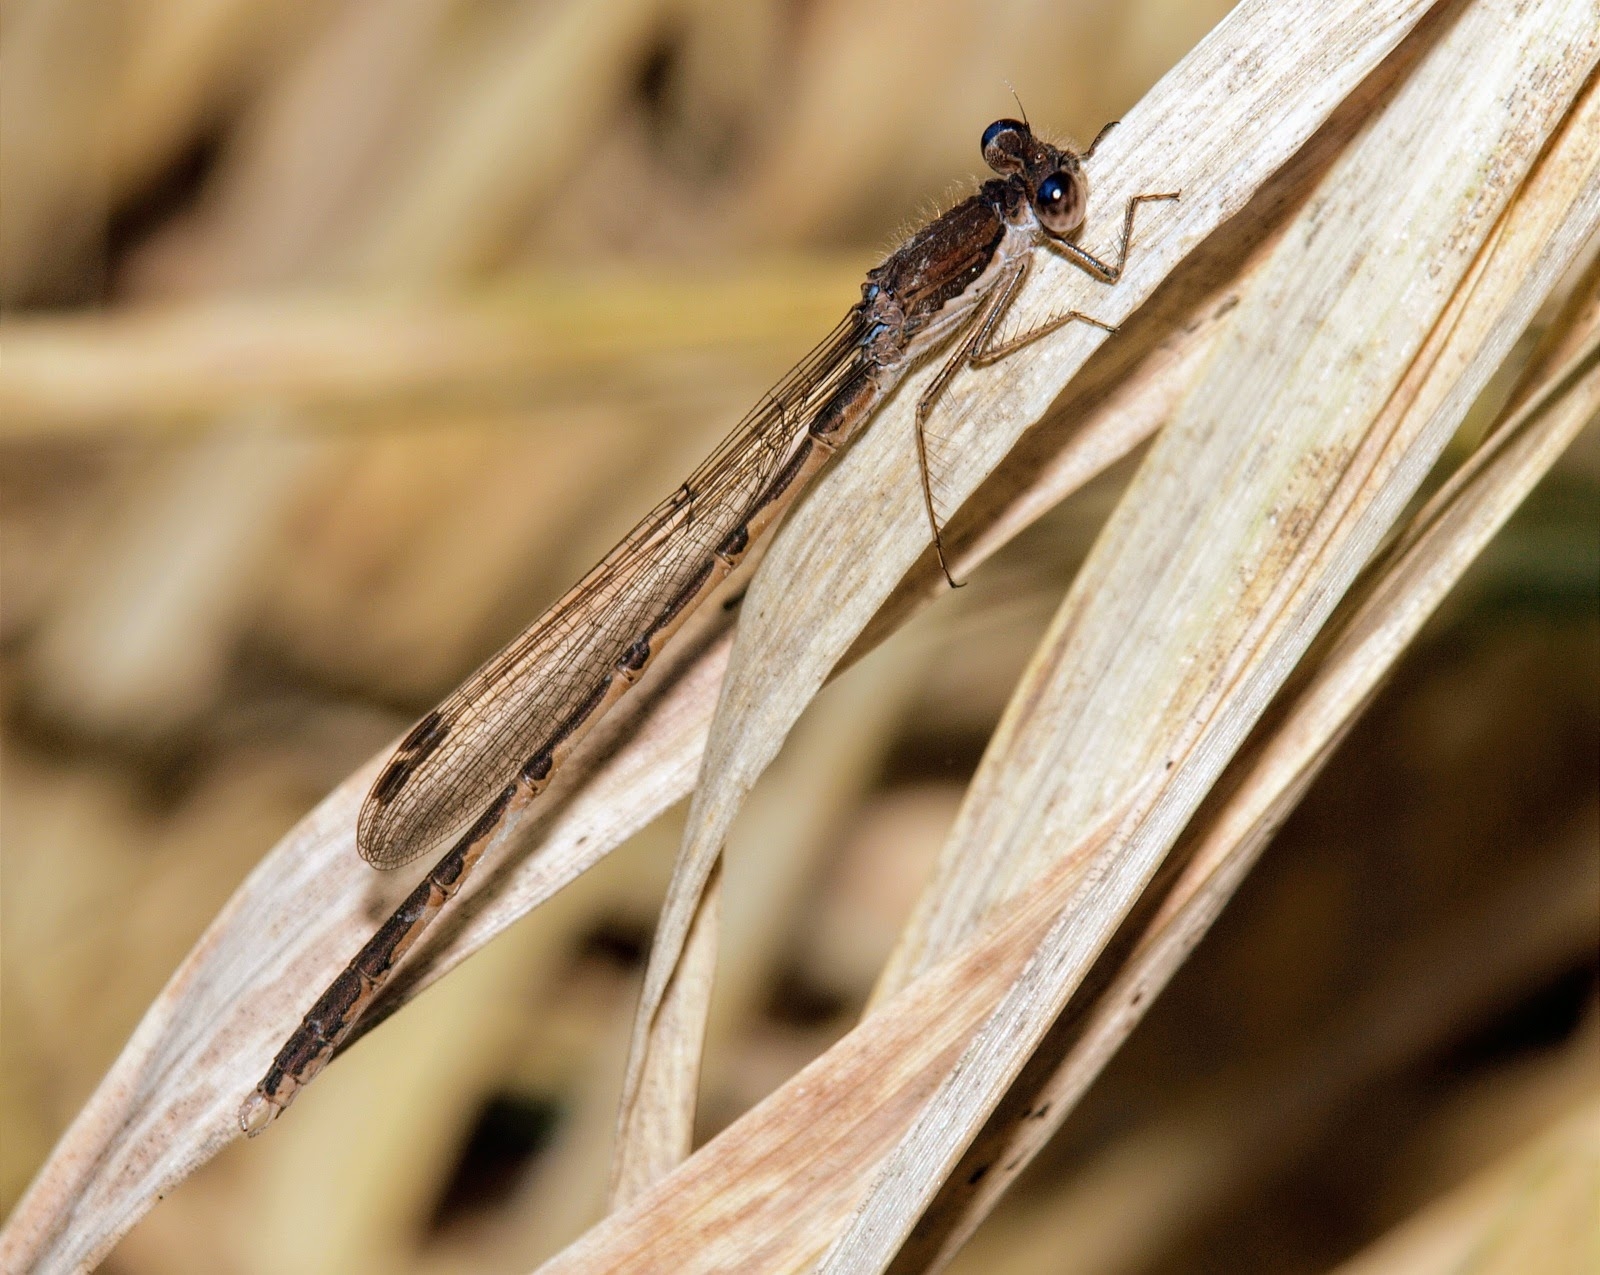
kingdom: Animalia
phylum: Arthropoda
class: Insecta
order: Odonata
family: Lestidae
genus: Sympecma
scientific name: Sympecma fusca
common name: Common winter damsel
